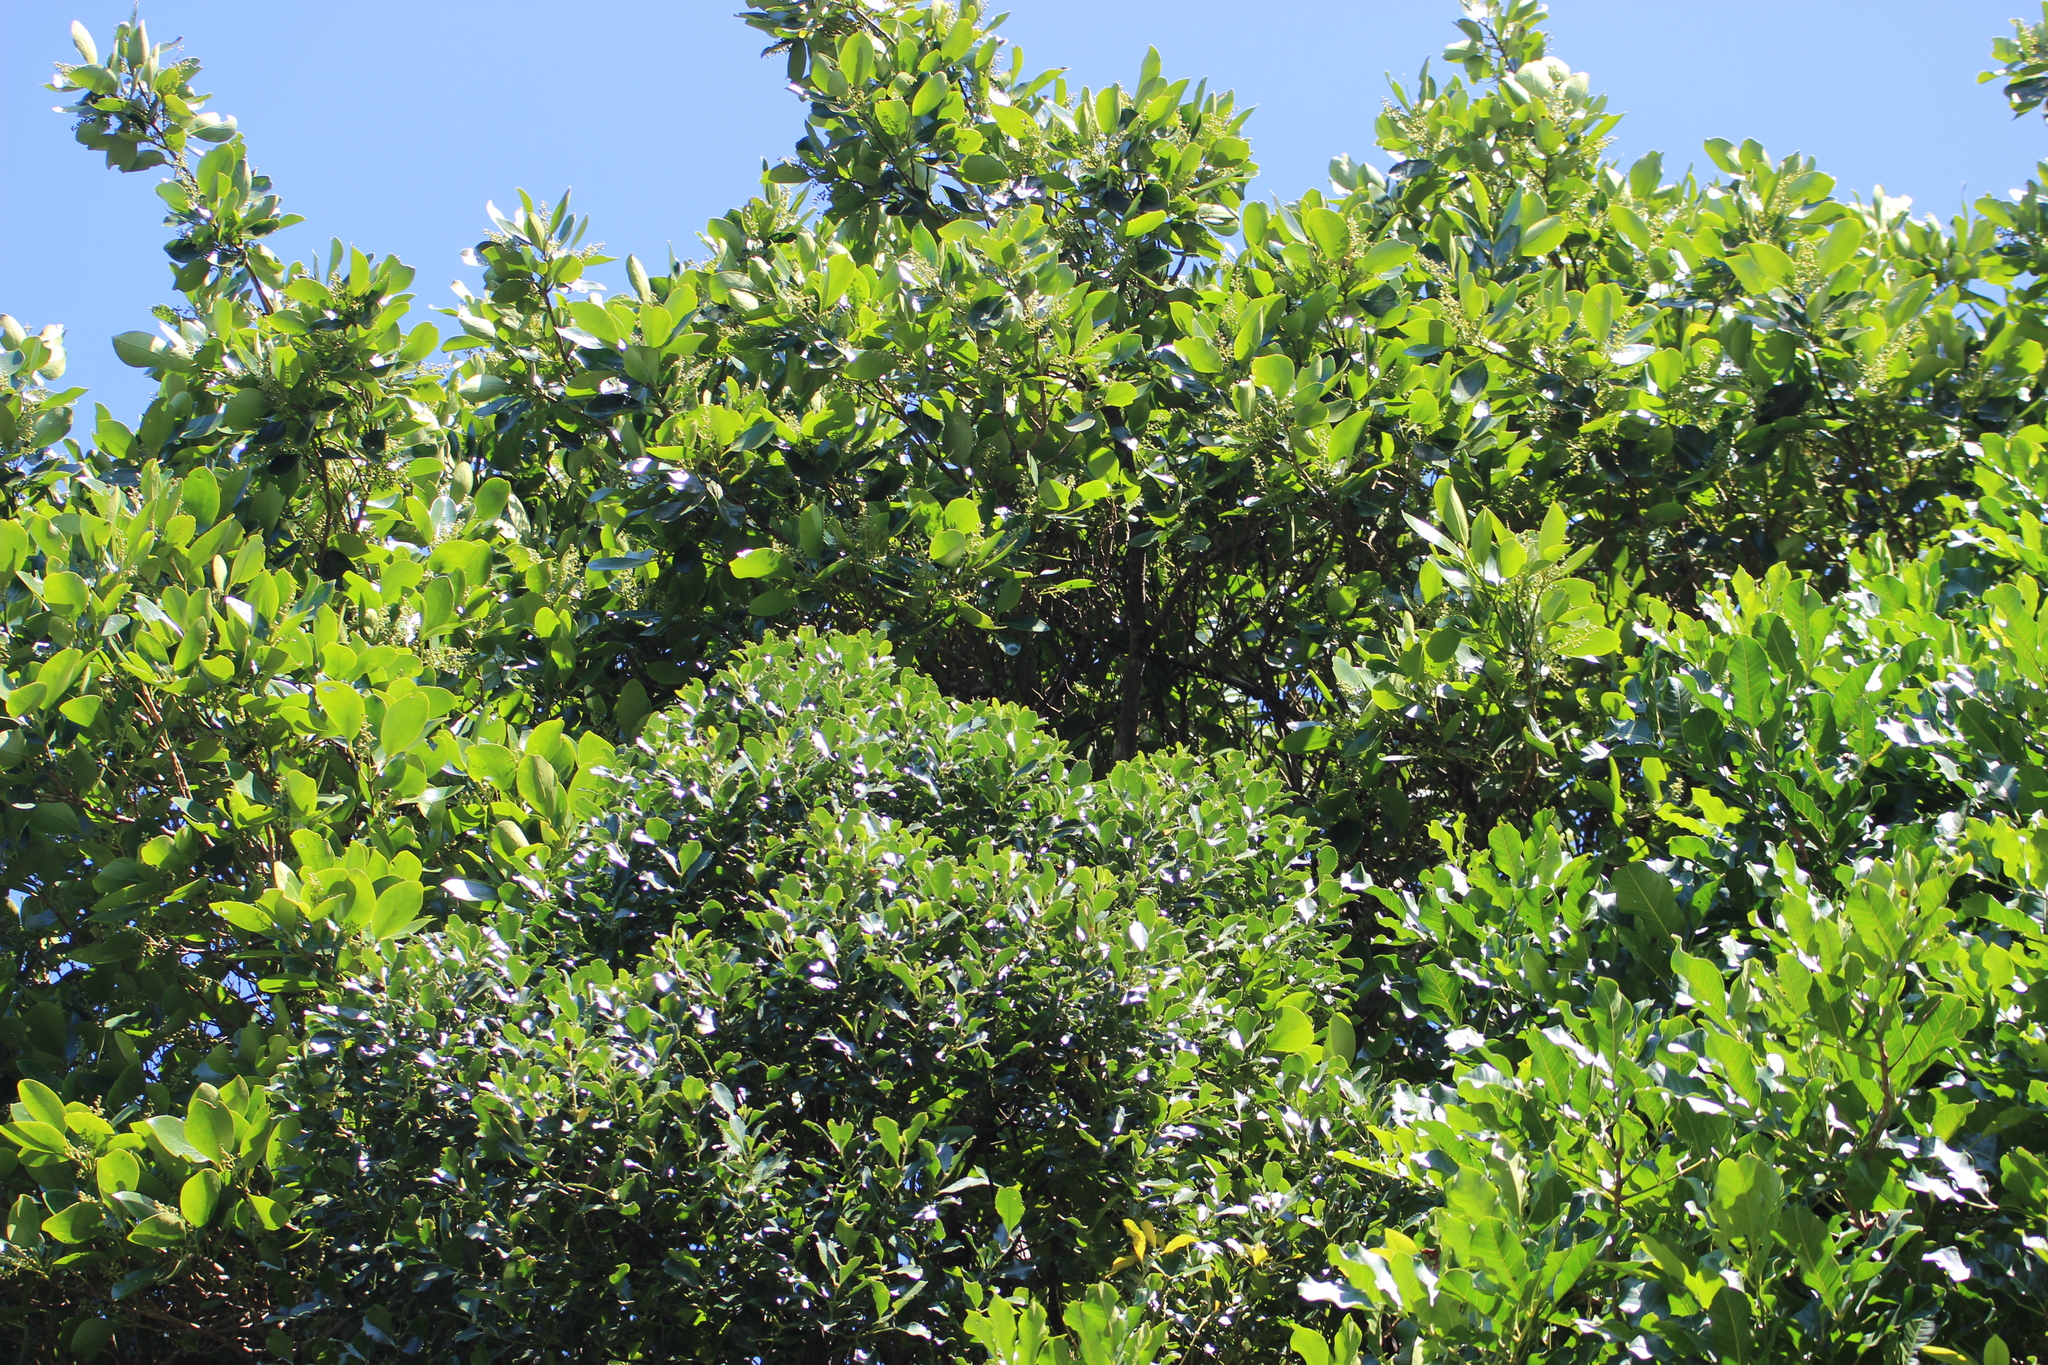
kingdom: Plantae
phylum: Tracheophyta
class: Magnoliopsida
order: Apiales
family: Griseliniaceae
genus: Griselinia
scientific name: Griselinia lucida
